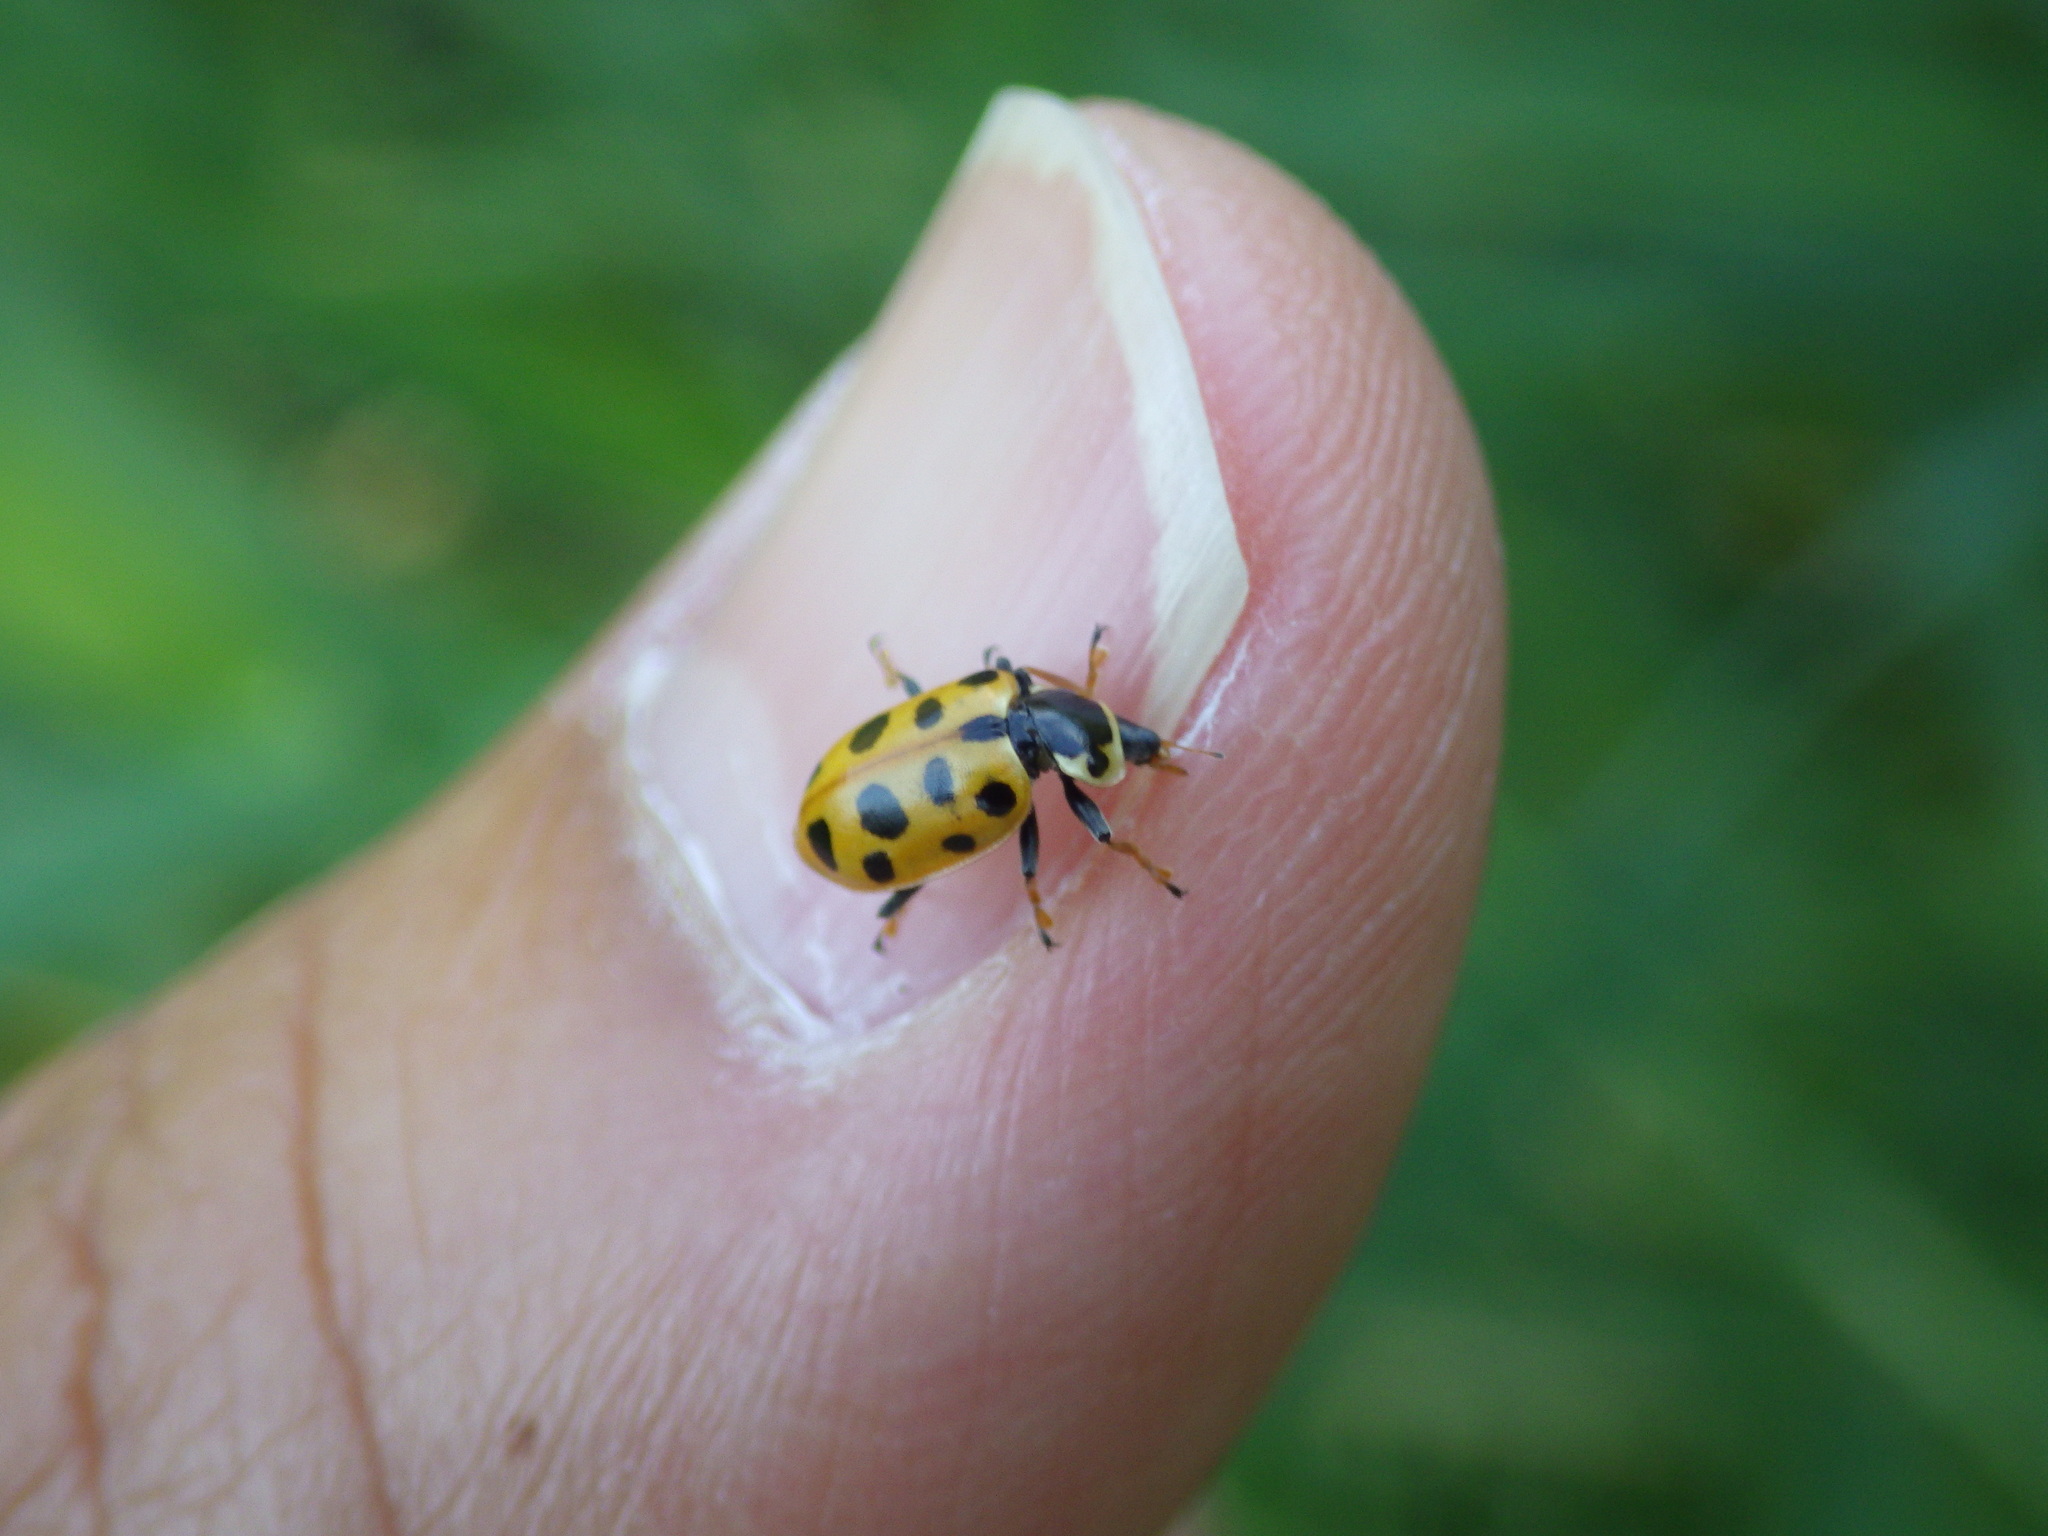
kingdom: Animalia
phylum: Arthropoda
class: Insecta
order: Coleoptera
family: Coccinellidae
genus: Hippodamia
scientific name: Hippodamia tredecimpunctata
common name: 13-spot ladybird
